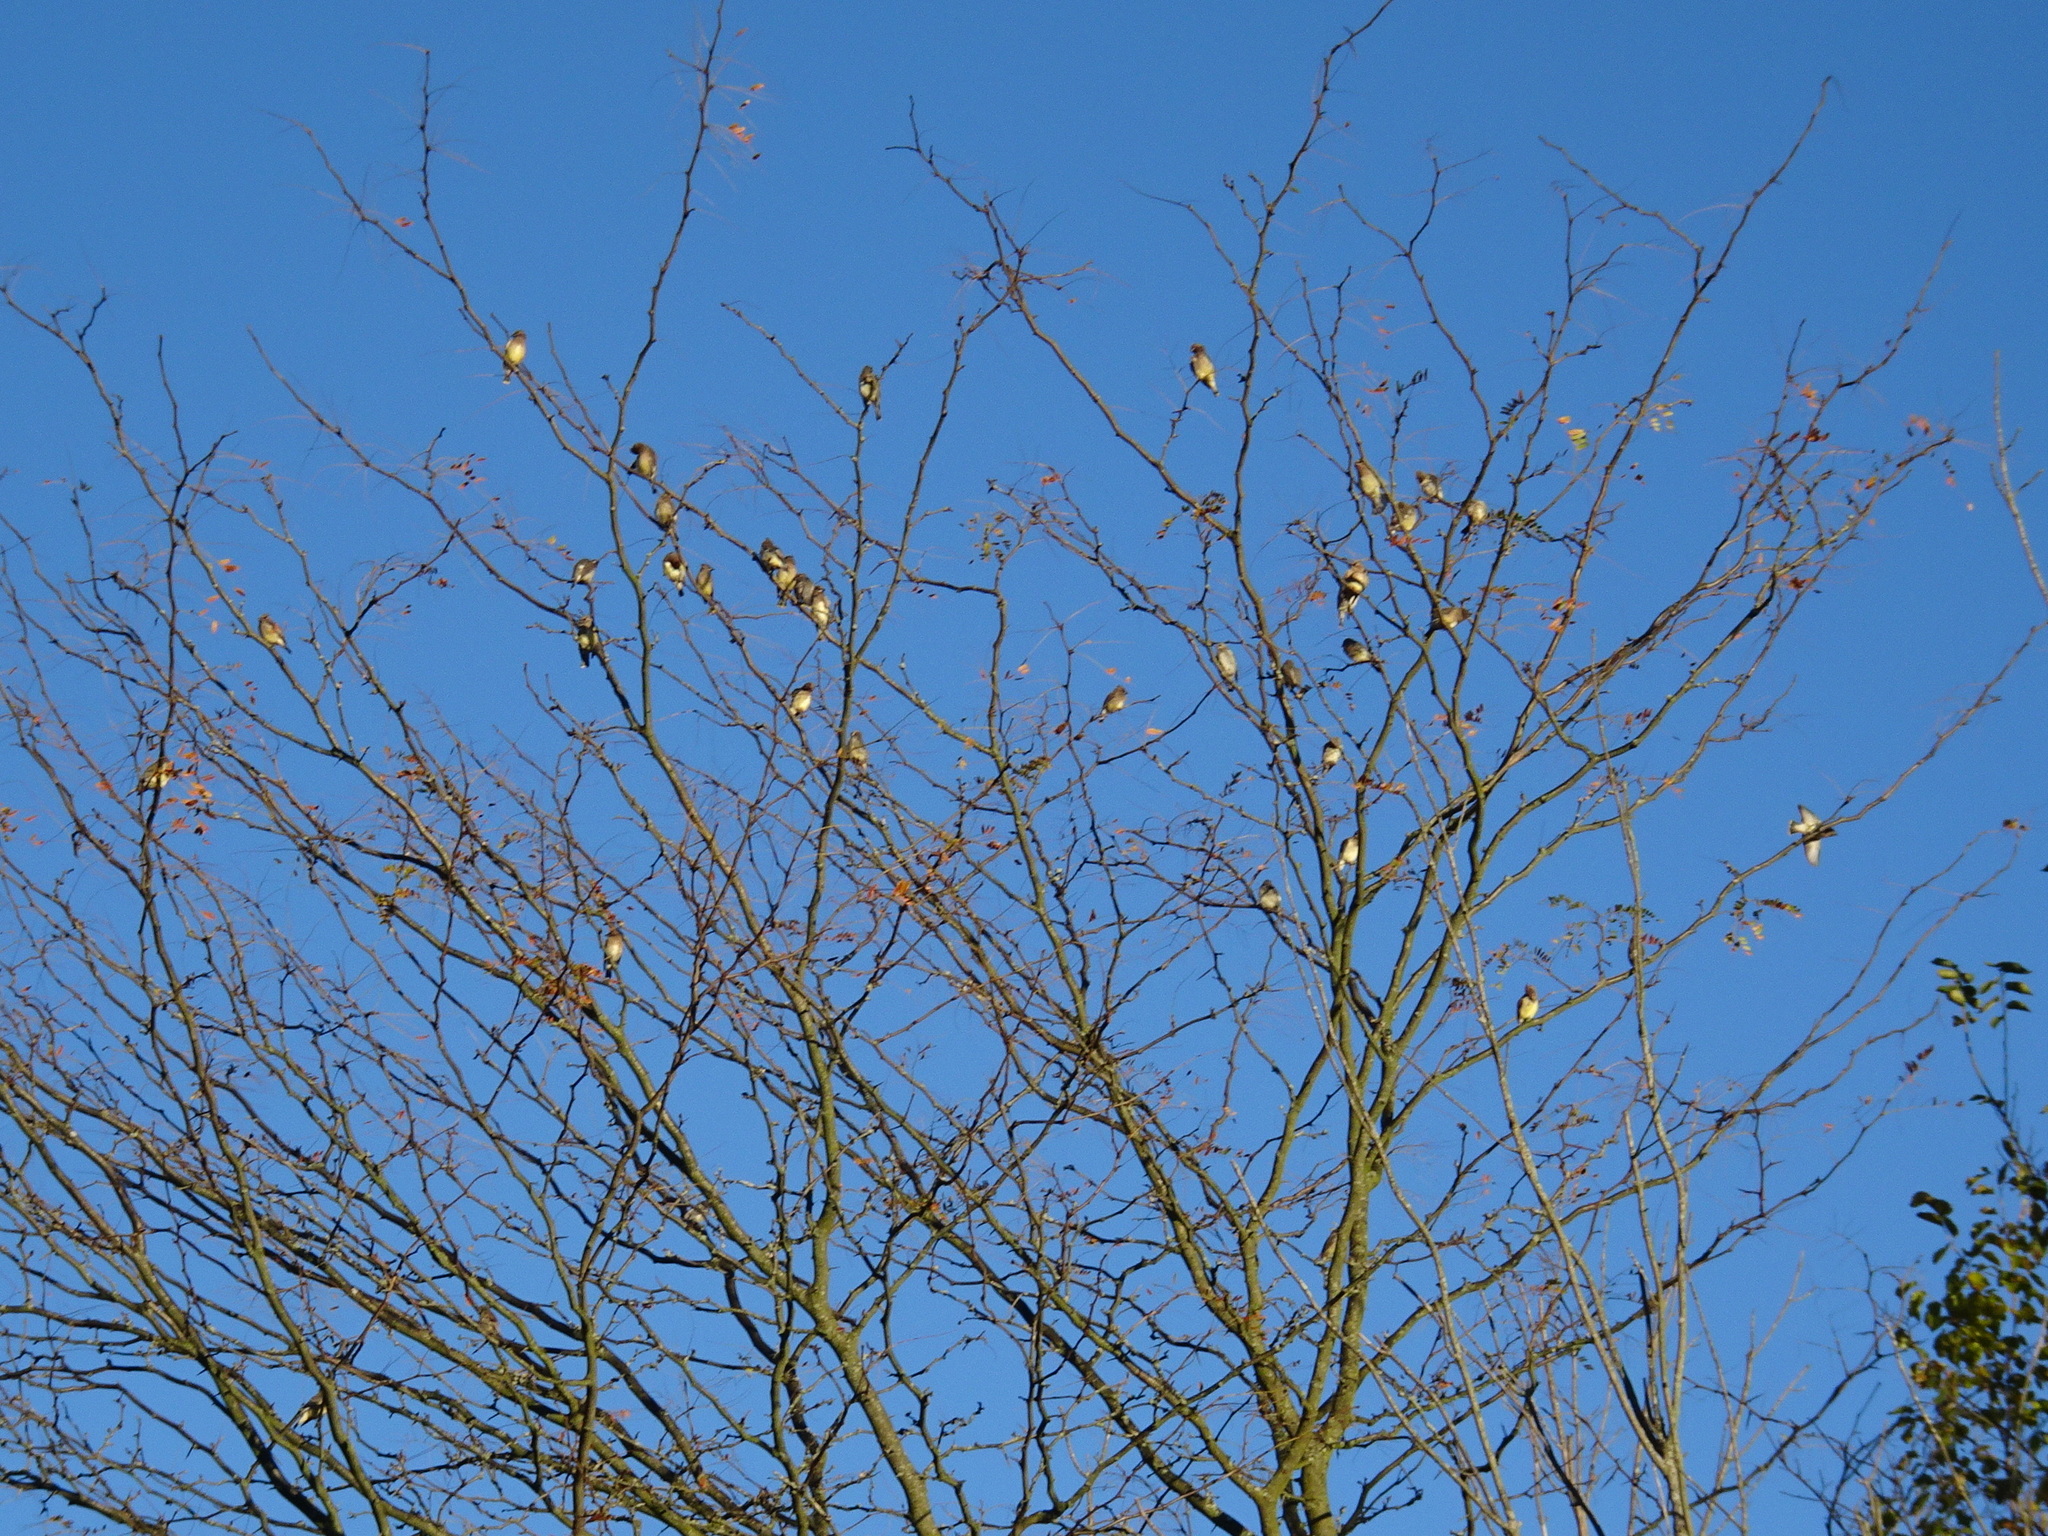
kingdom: Animalia
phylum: Chordata
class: Aves
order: Passeriformes
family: Bombycillidae
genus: Bombycilla
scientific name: Bombycilla cedrorum
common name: Cedar waxwing
